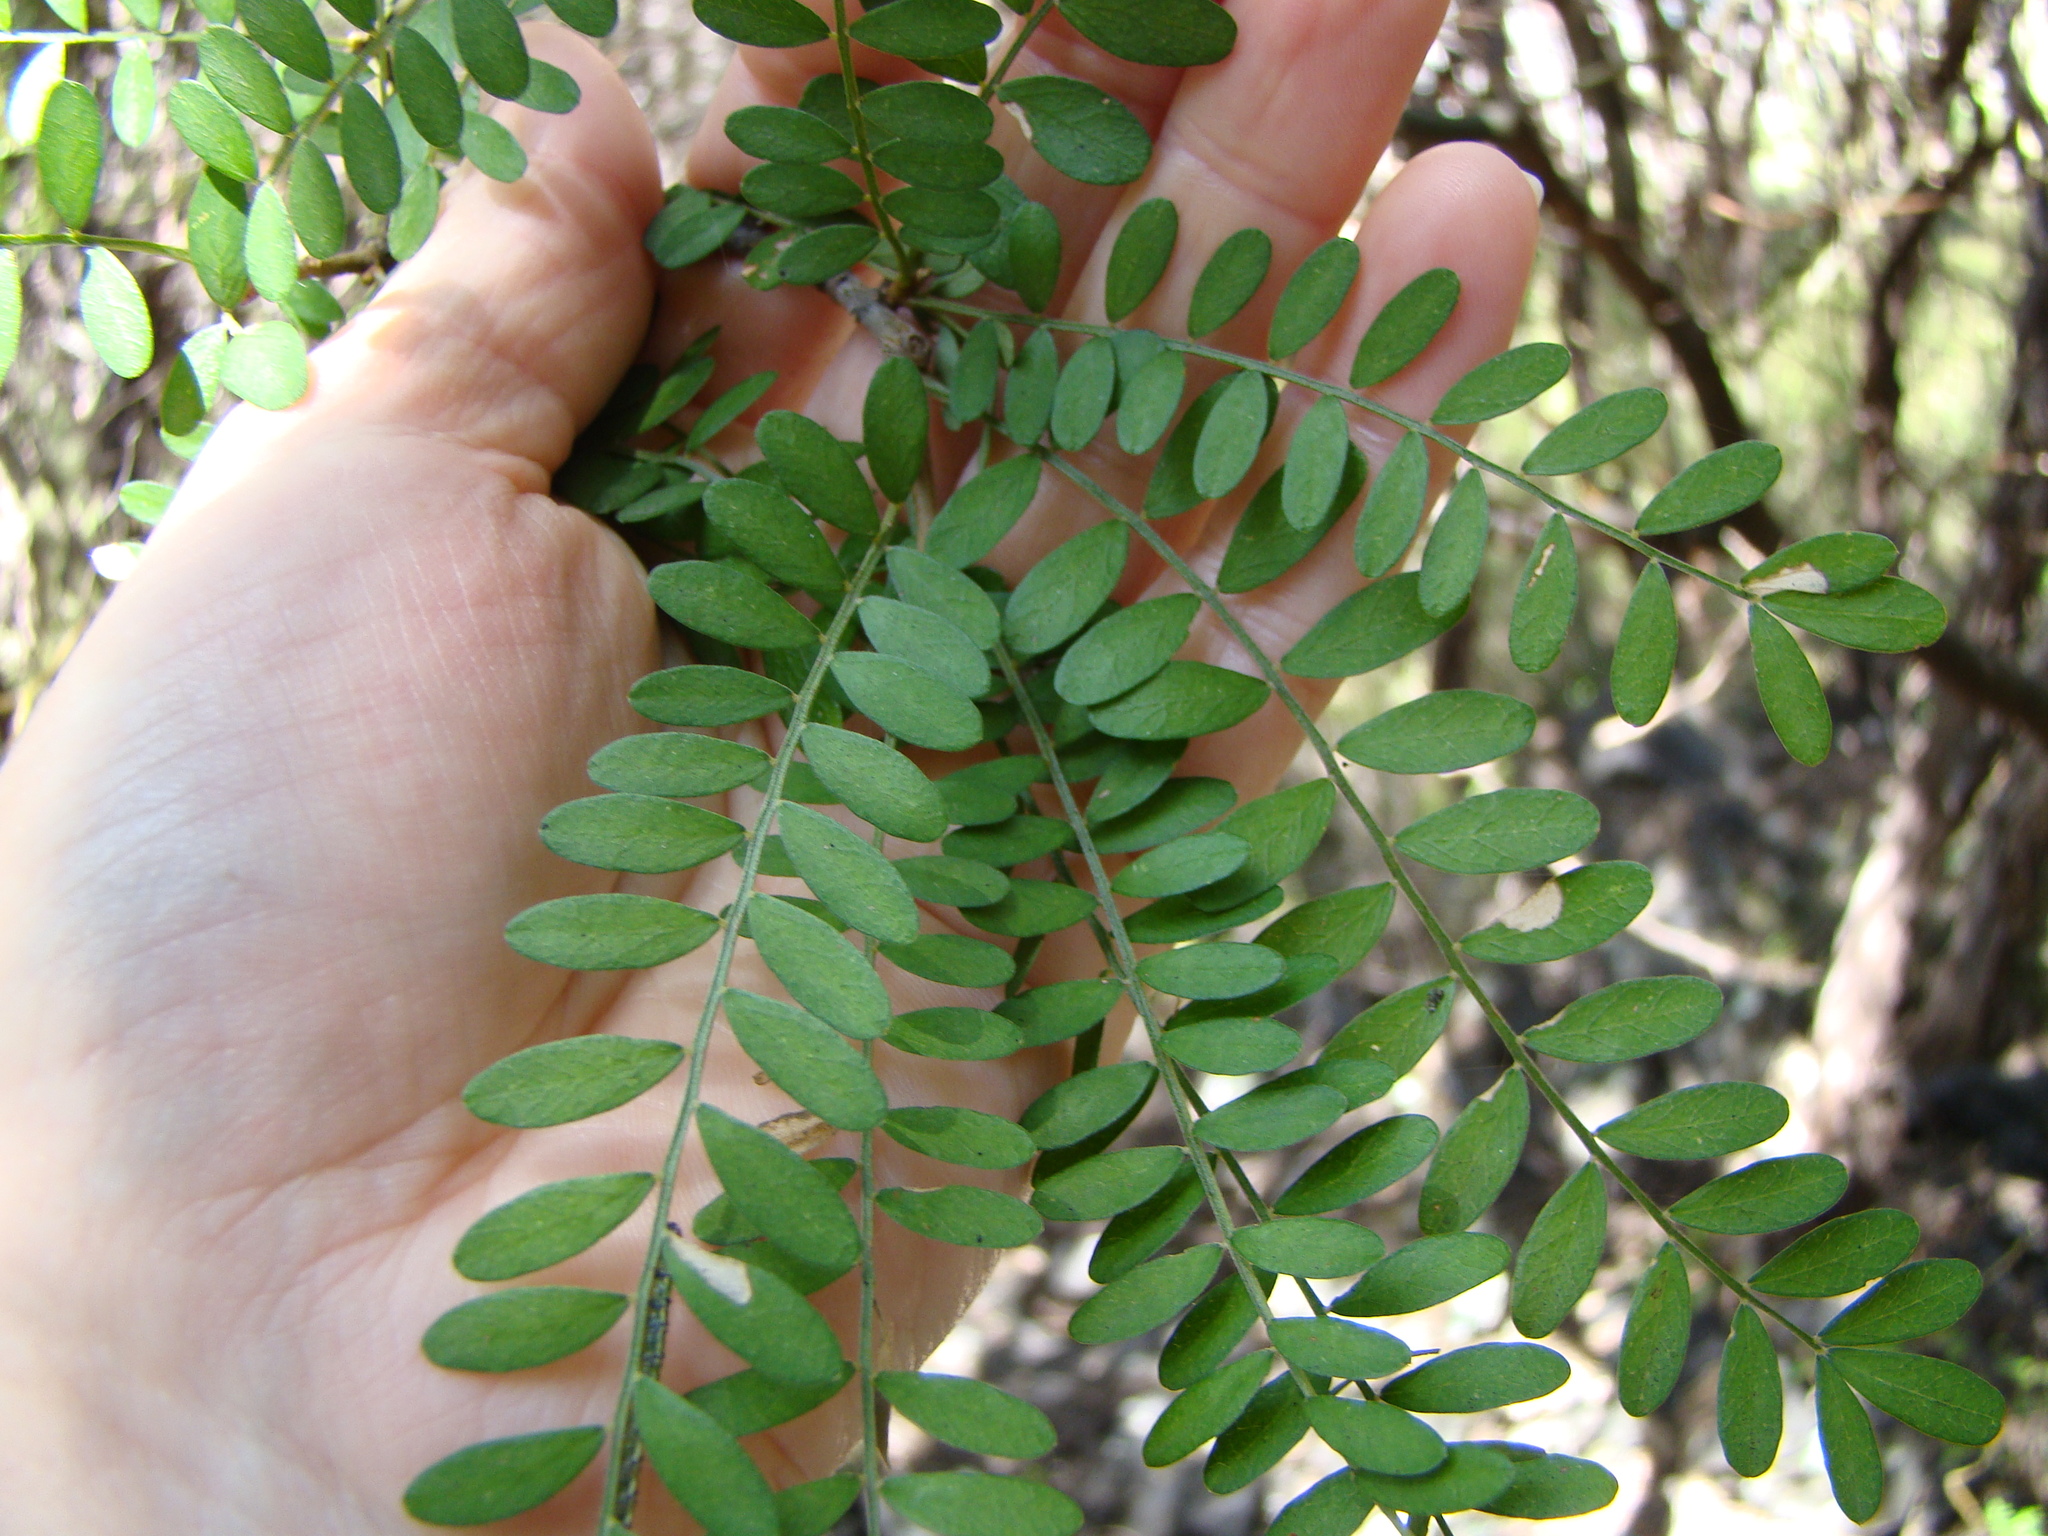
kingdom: Plantae
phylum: Tracheophyta
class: Magnoliopsida
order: Fabales
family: Fabaceae
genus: Sophora
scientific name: Sophora tetraptera
